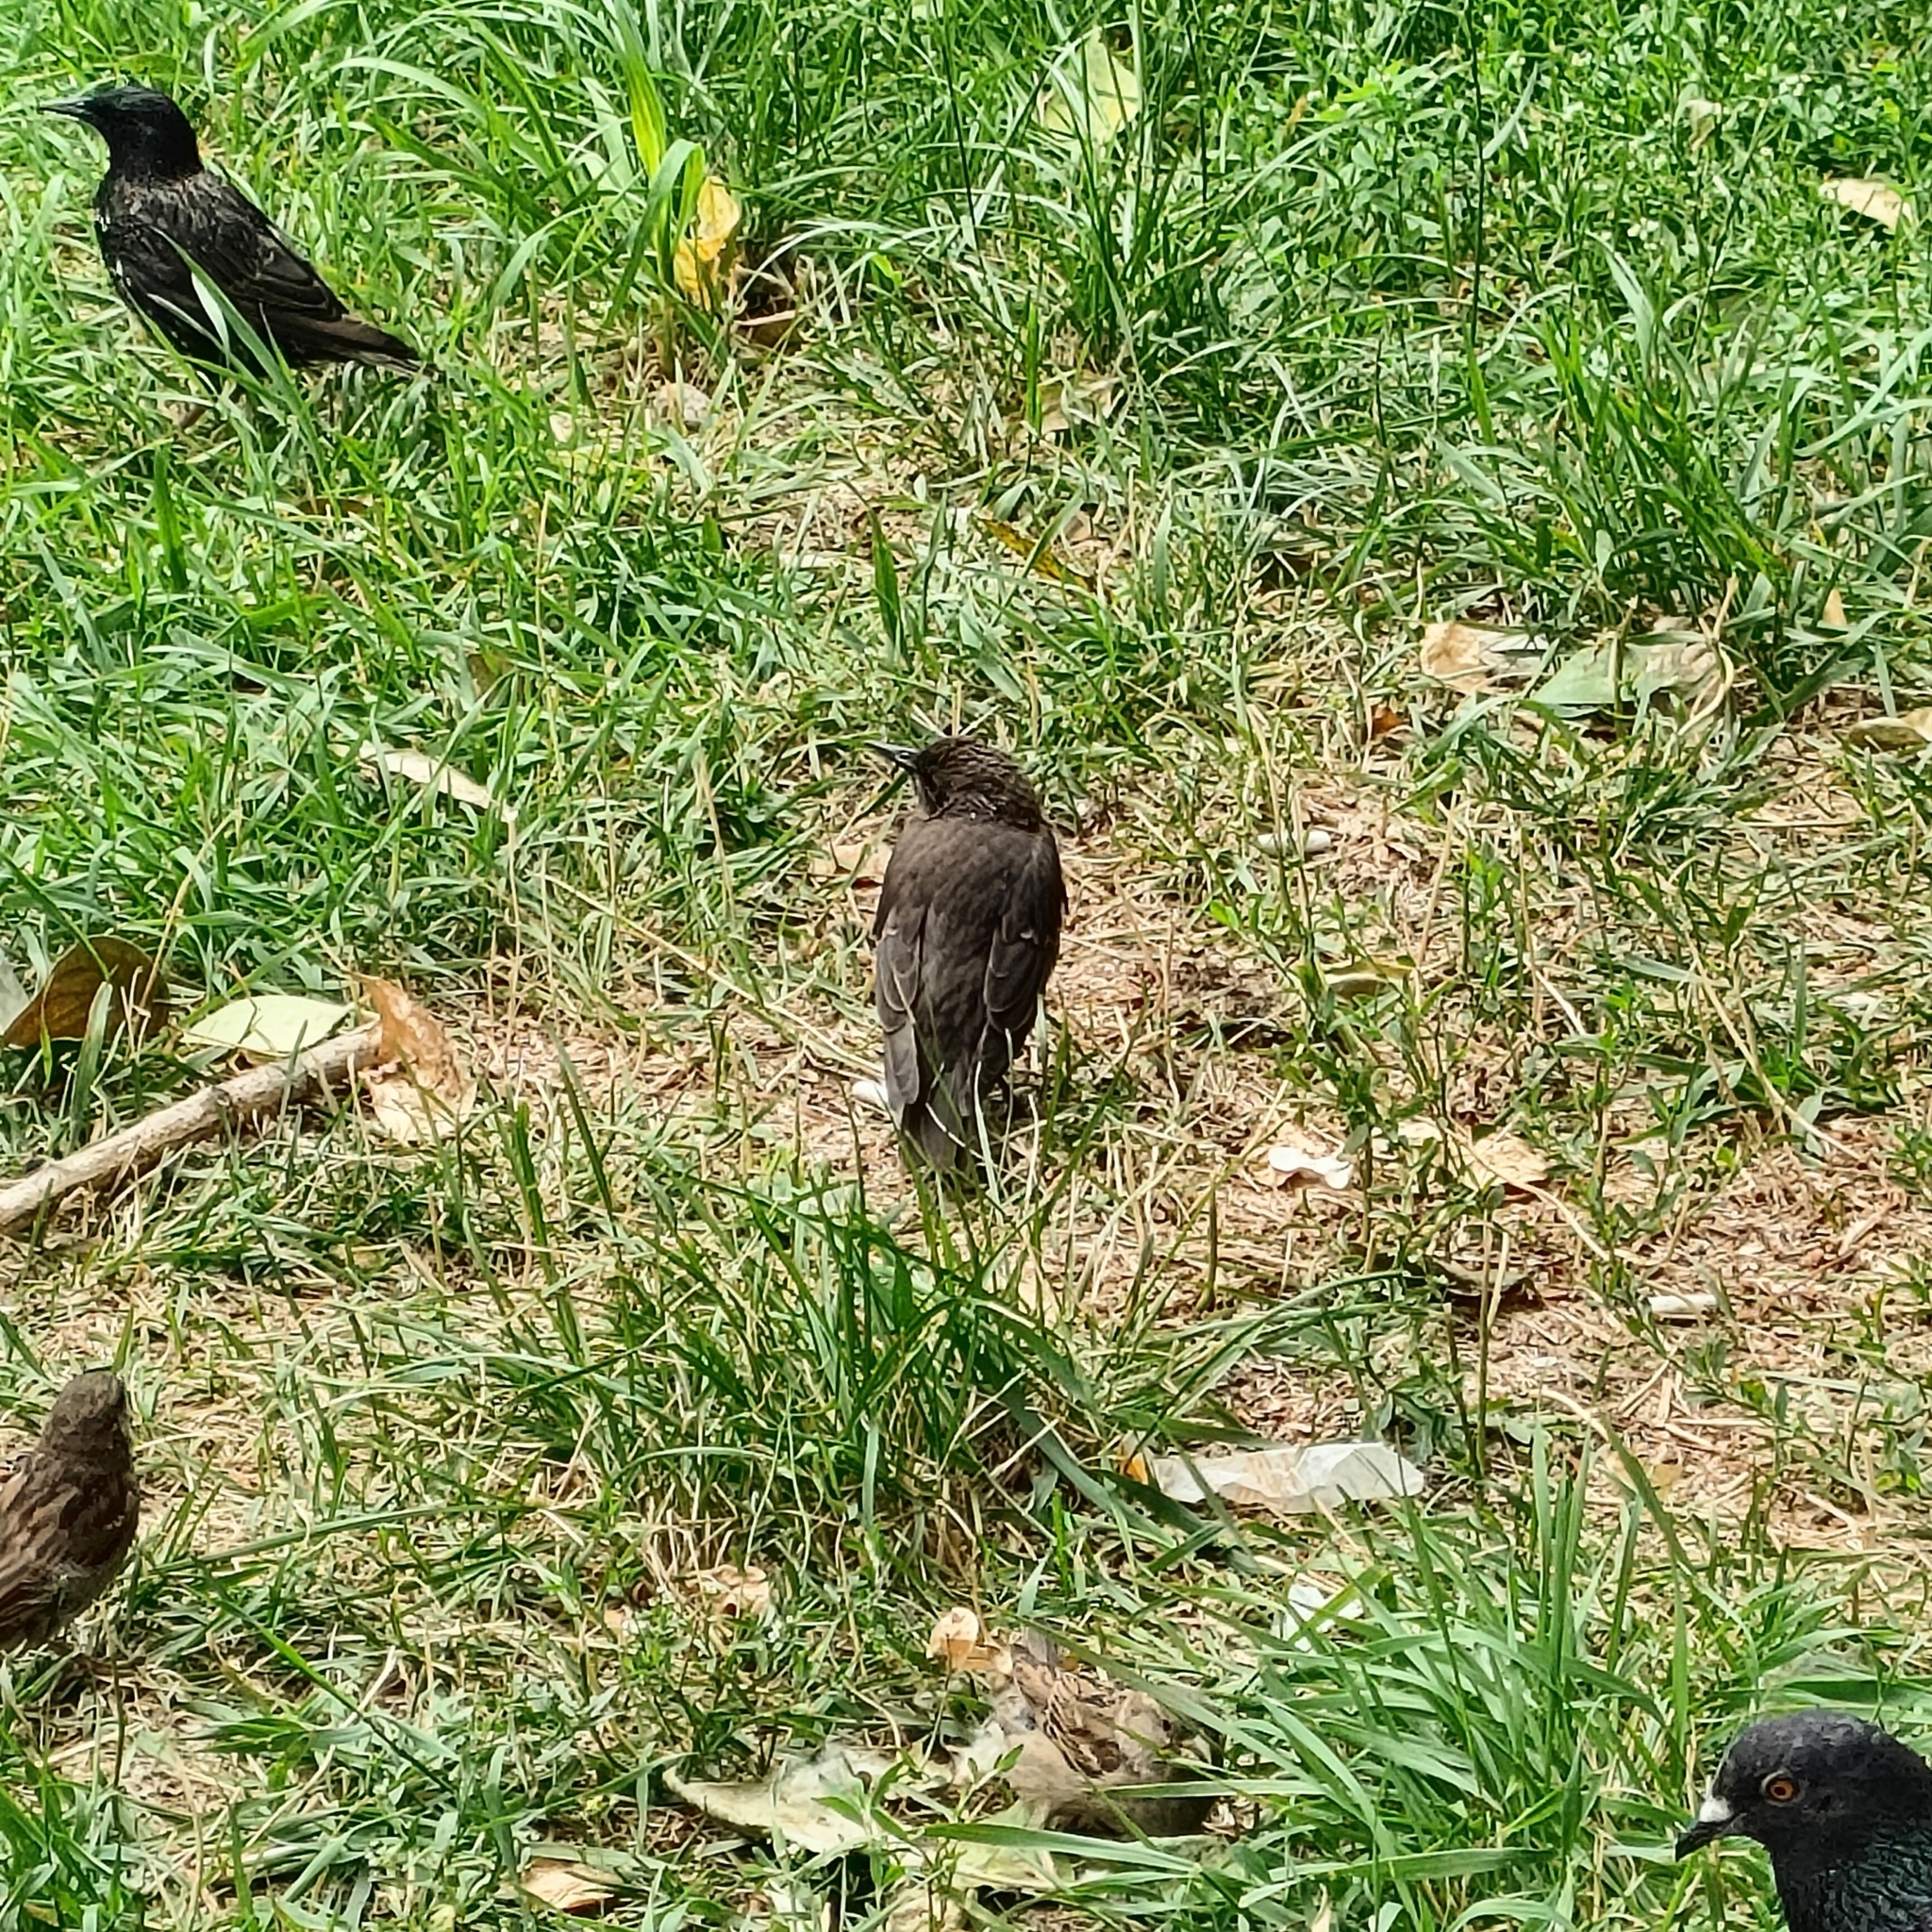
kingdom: Animalia
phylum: Chordata
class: Aves
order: Passeriformes
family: Sturnidae
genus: Sturnus
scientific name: Sturnus vulgaris
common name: Common starling
